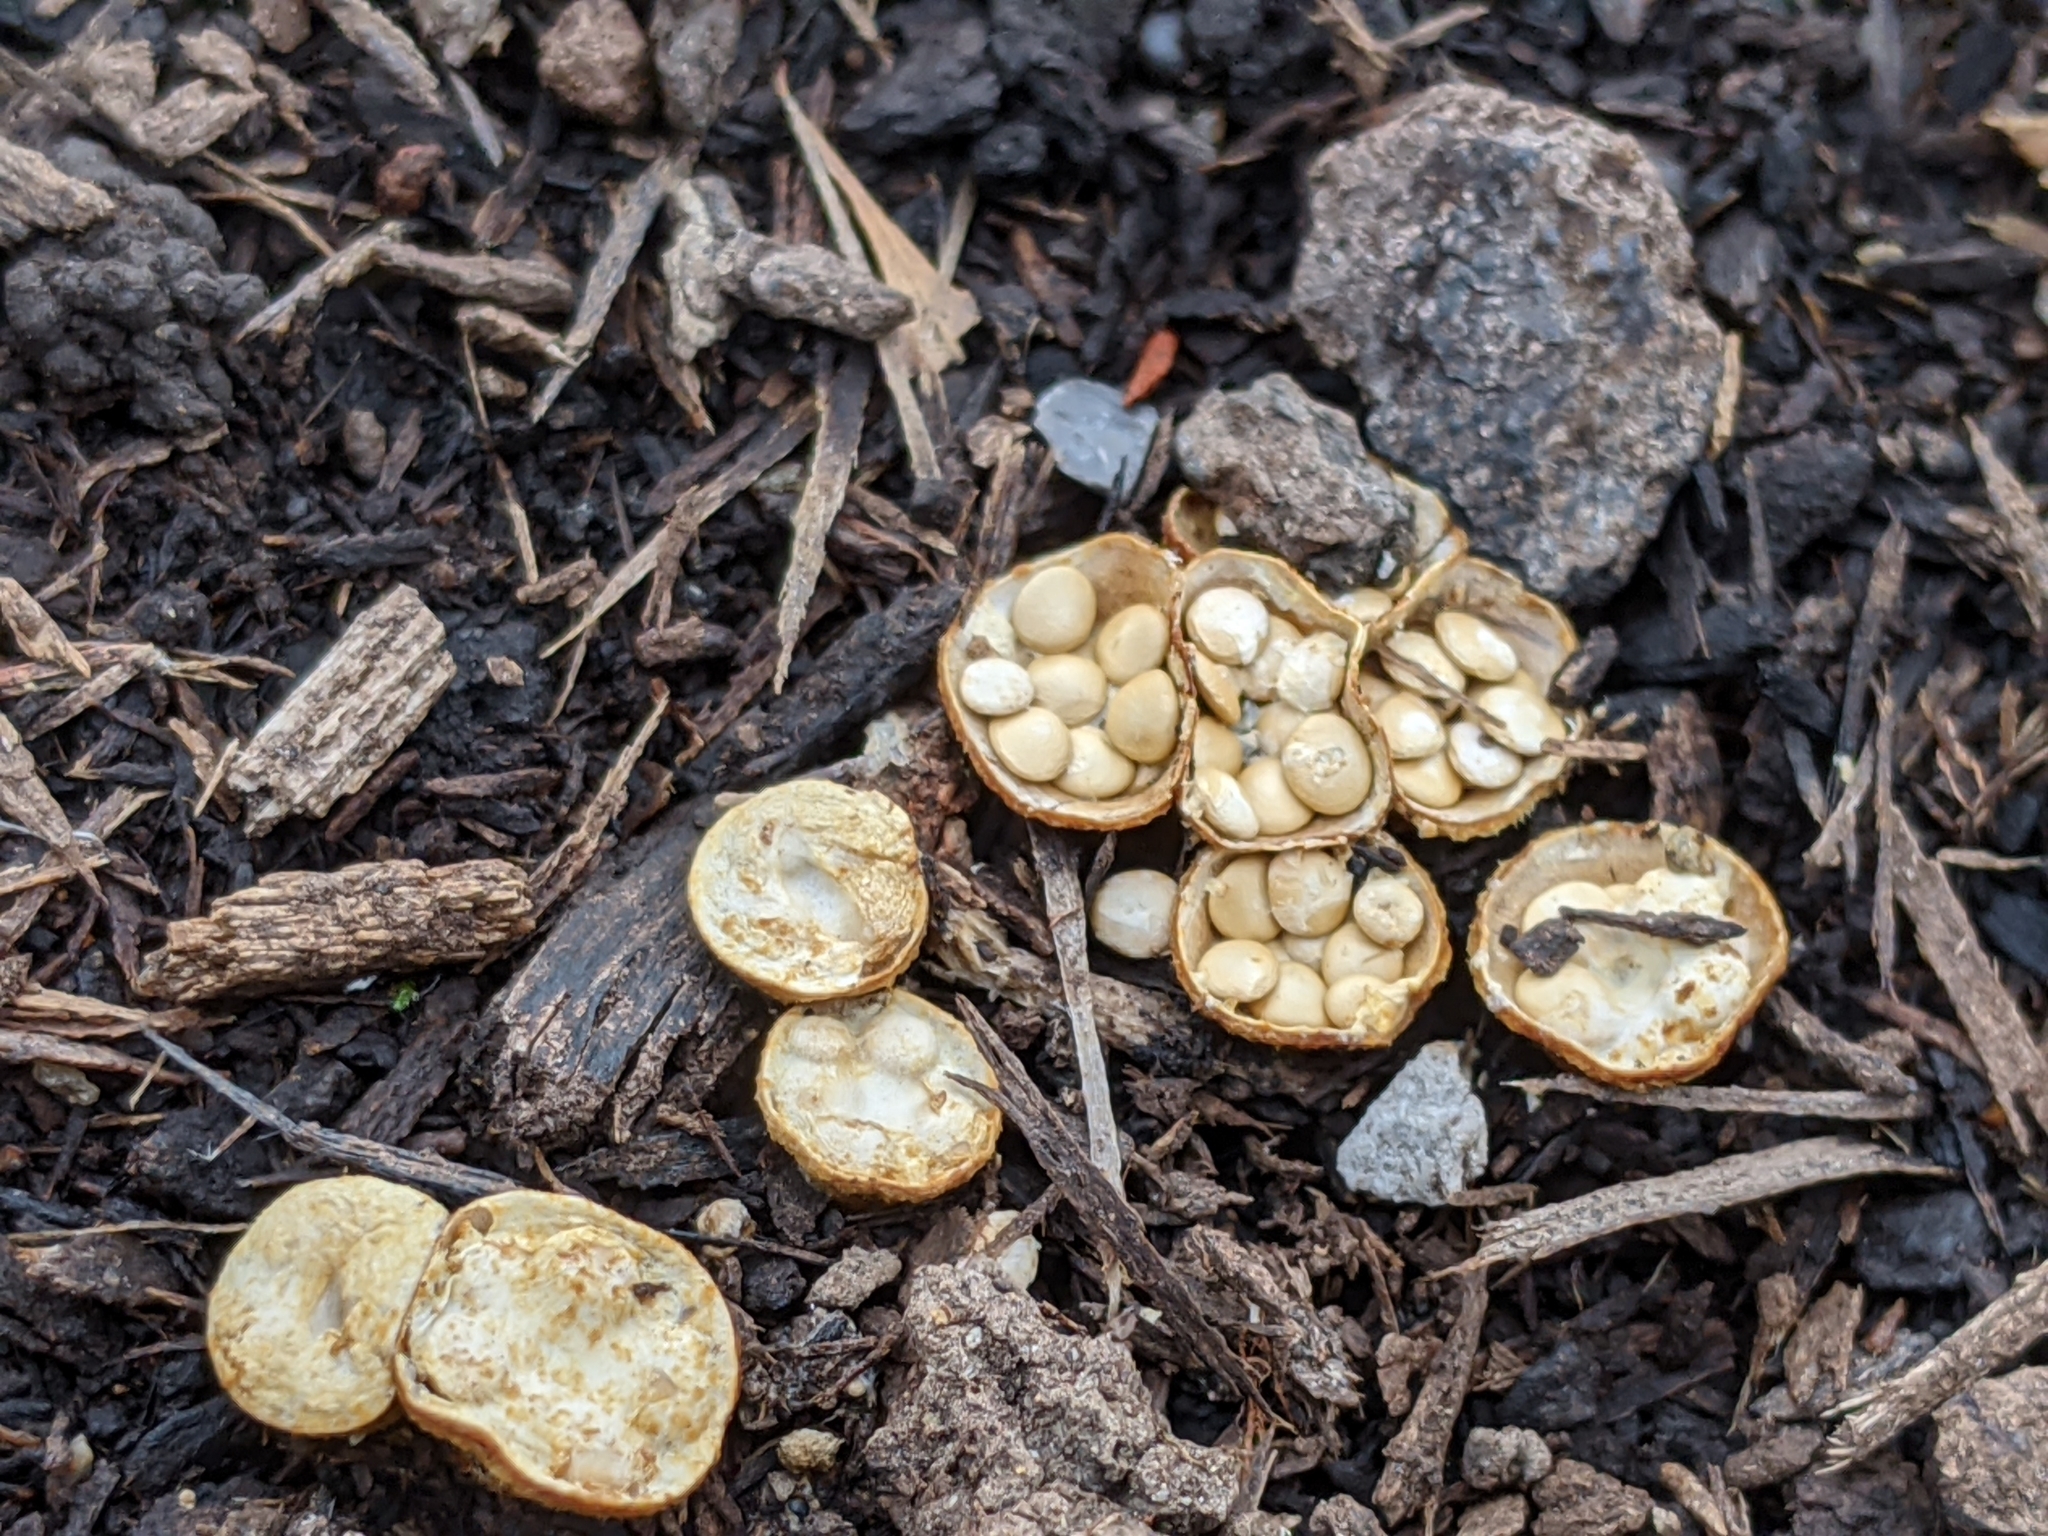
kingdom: Fungi
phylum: Basidiomycota
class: Agaricomycetes
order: Agaricales
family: Nidulariaceae
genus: Crucibulum
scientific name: Crucibulum laeve
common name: Common bird's nest
